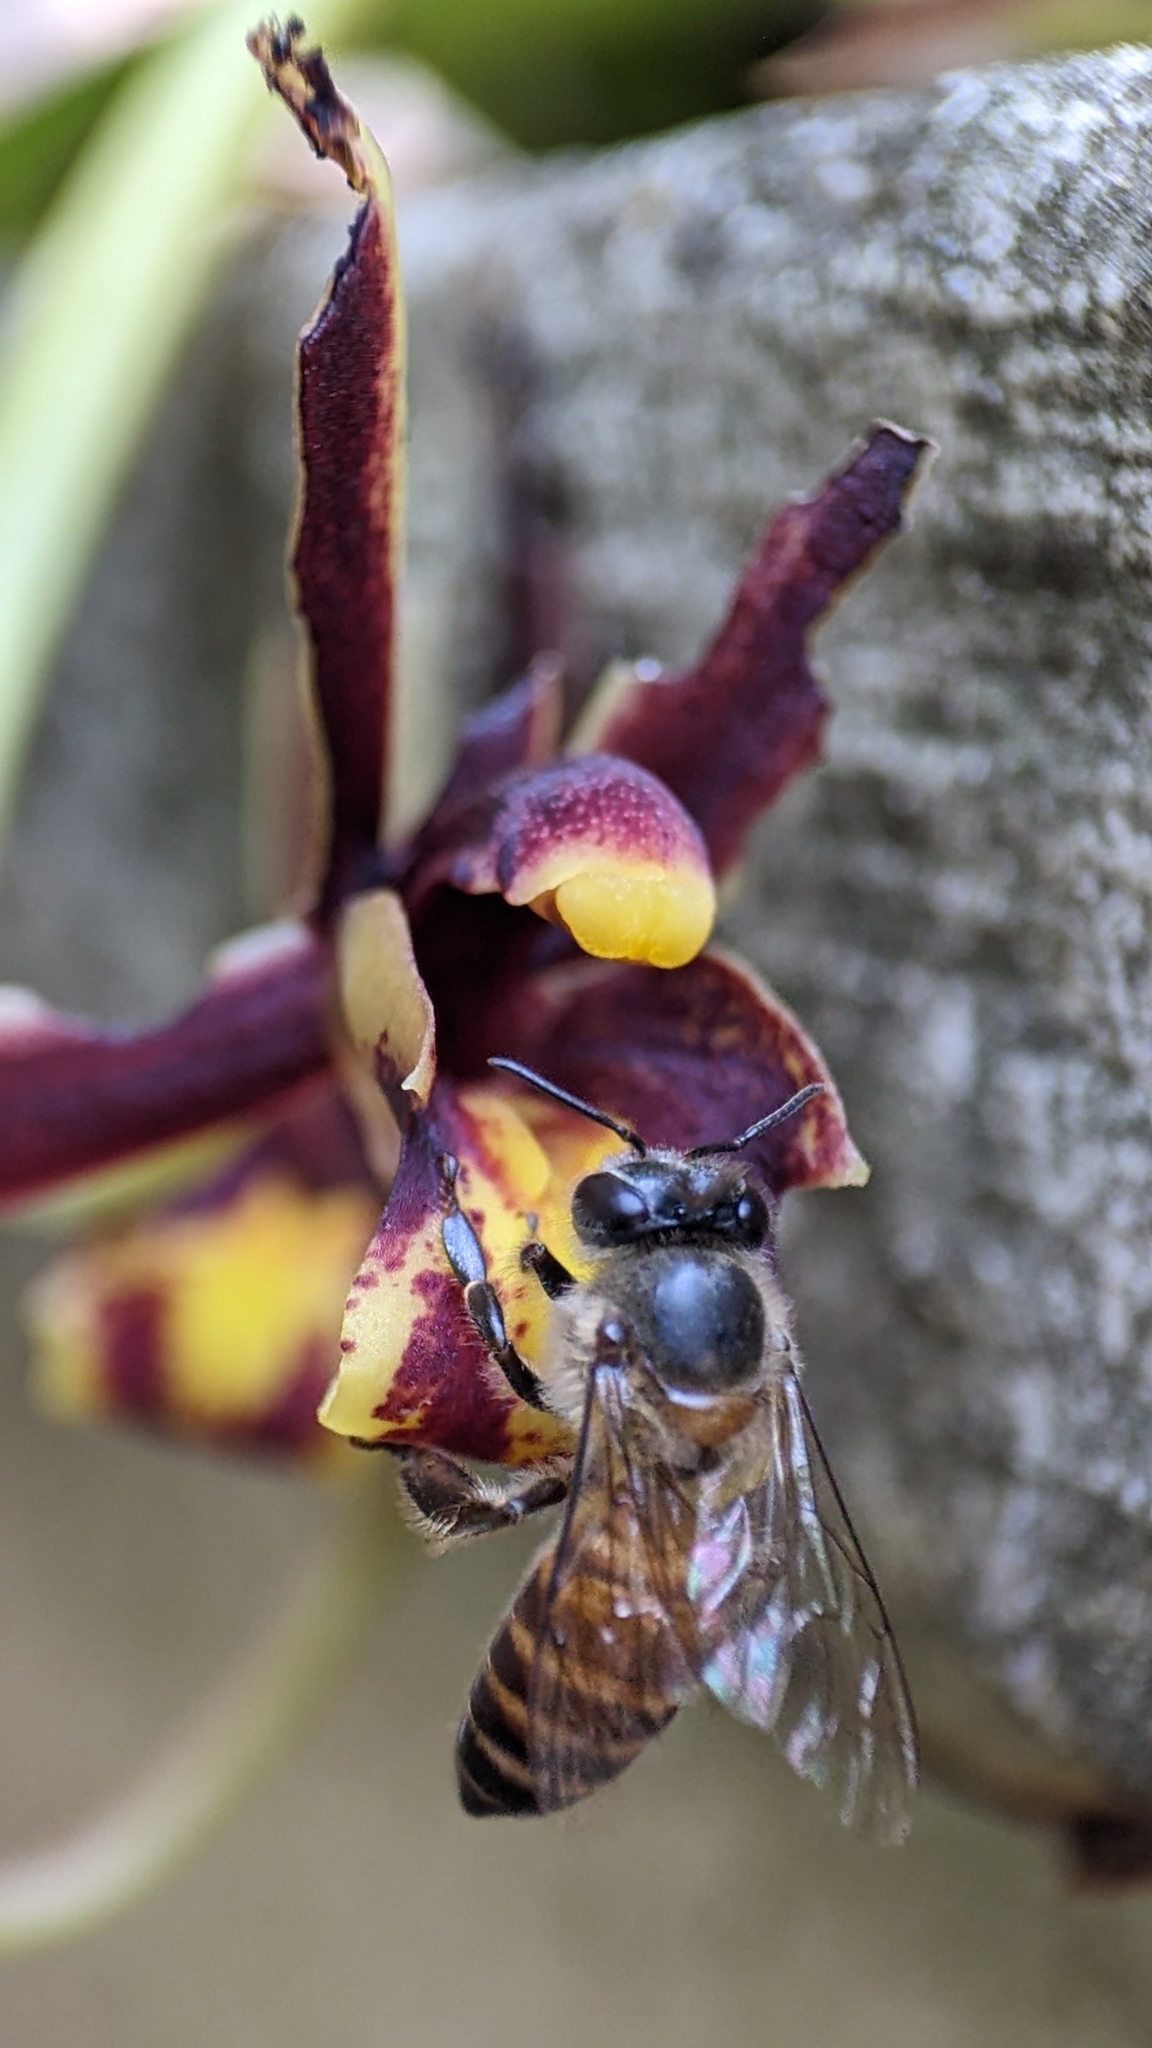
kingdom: Animalia
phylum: Arthropoda
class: Insecta
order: Hymenoptera
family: Apidae
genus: Apis
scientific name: Apis cerana
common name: Honey bee
